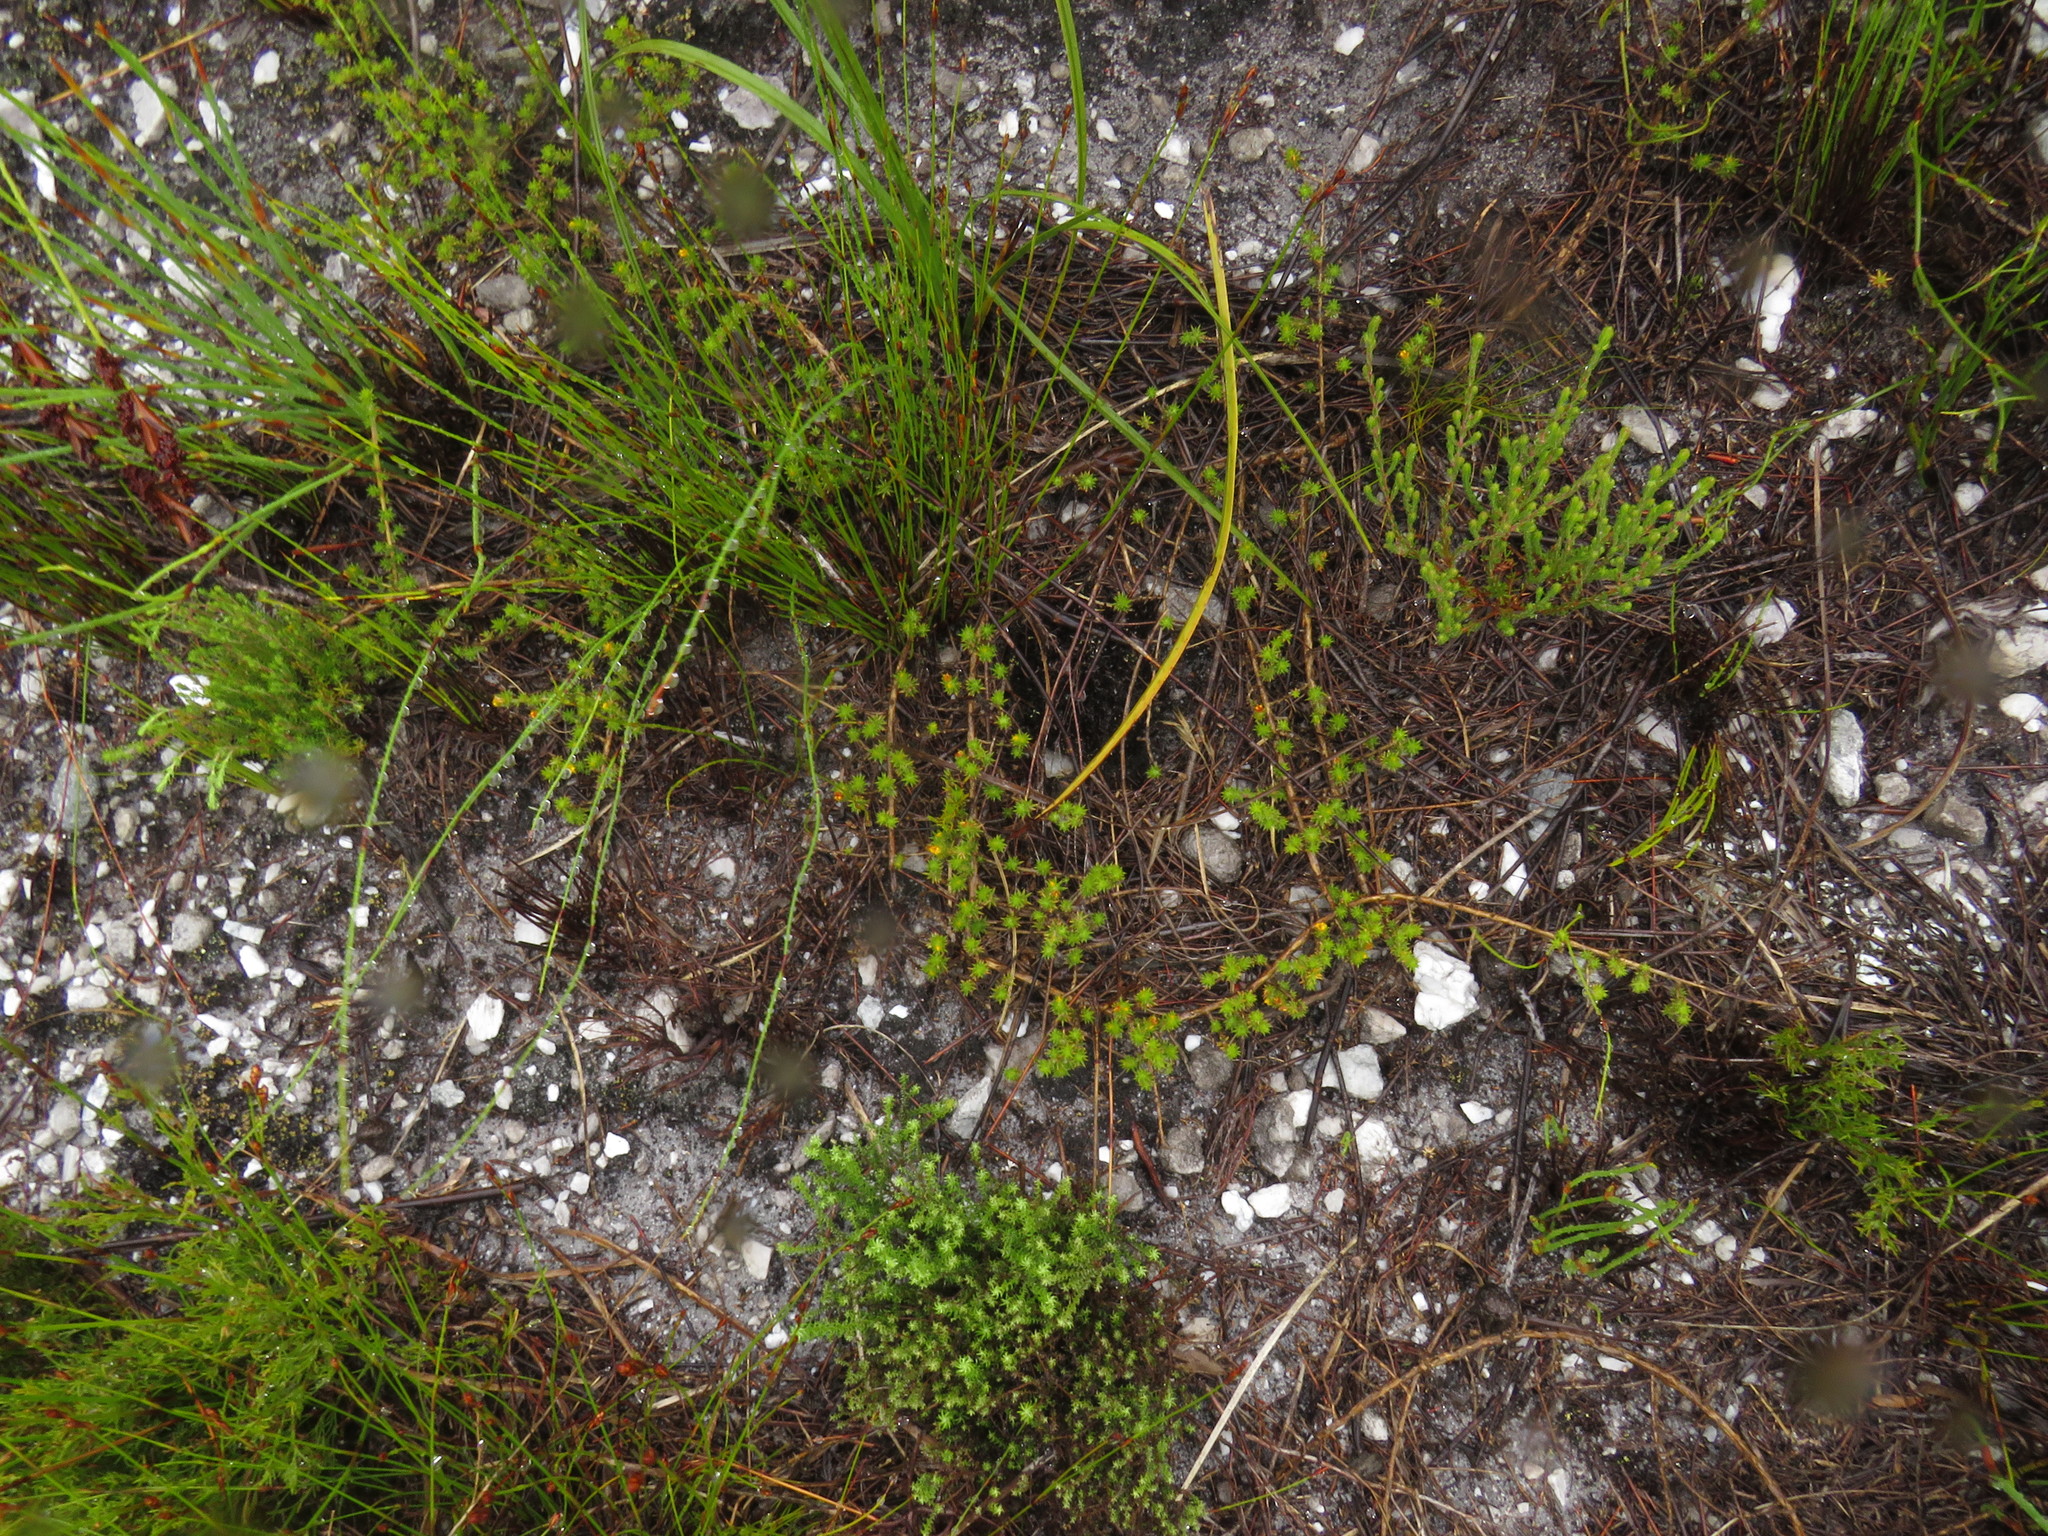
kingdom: Plantae
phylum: Tracheophyta
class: Magnoliopsida
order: Fabales
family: Fabaceae
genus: Aspalathus
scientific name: Aspalathus batodes
